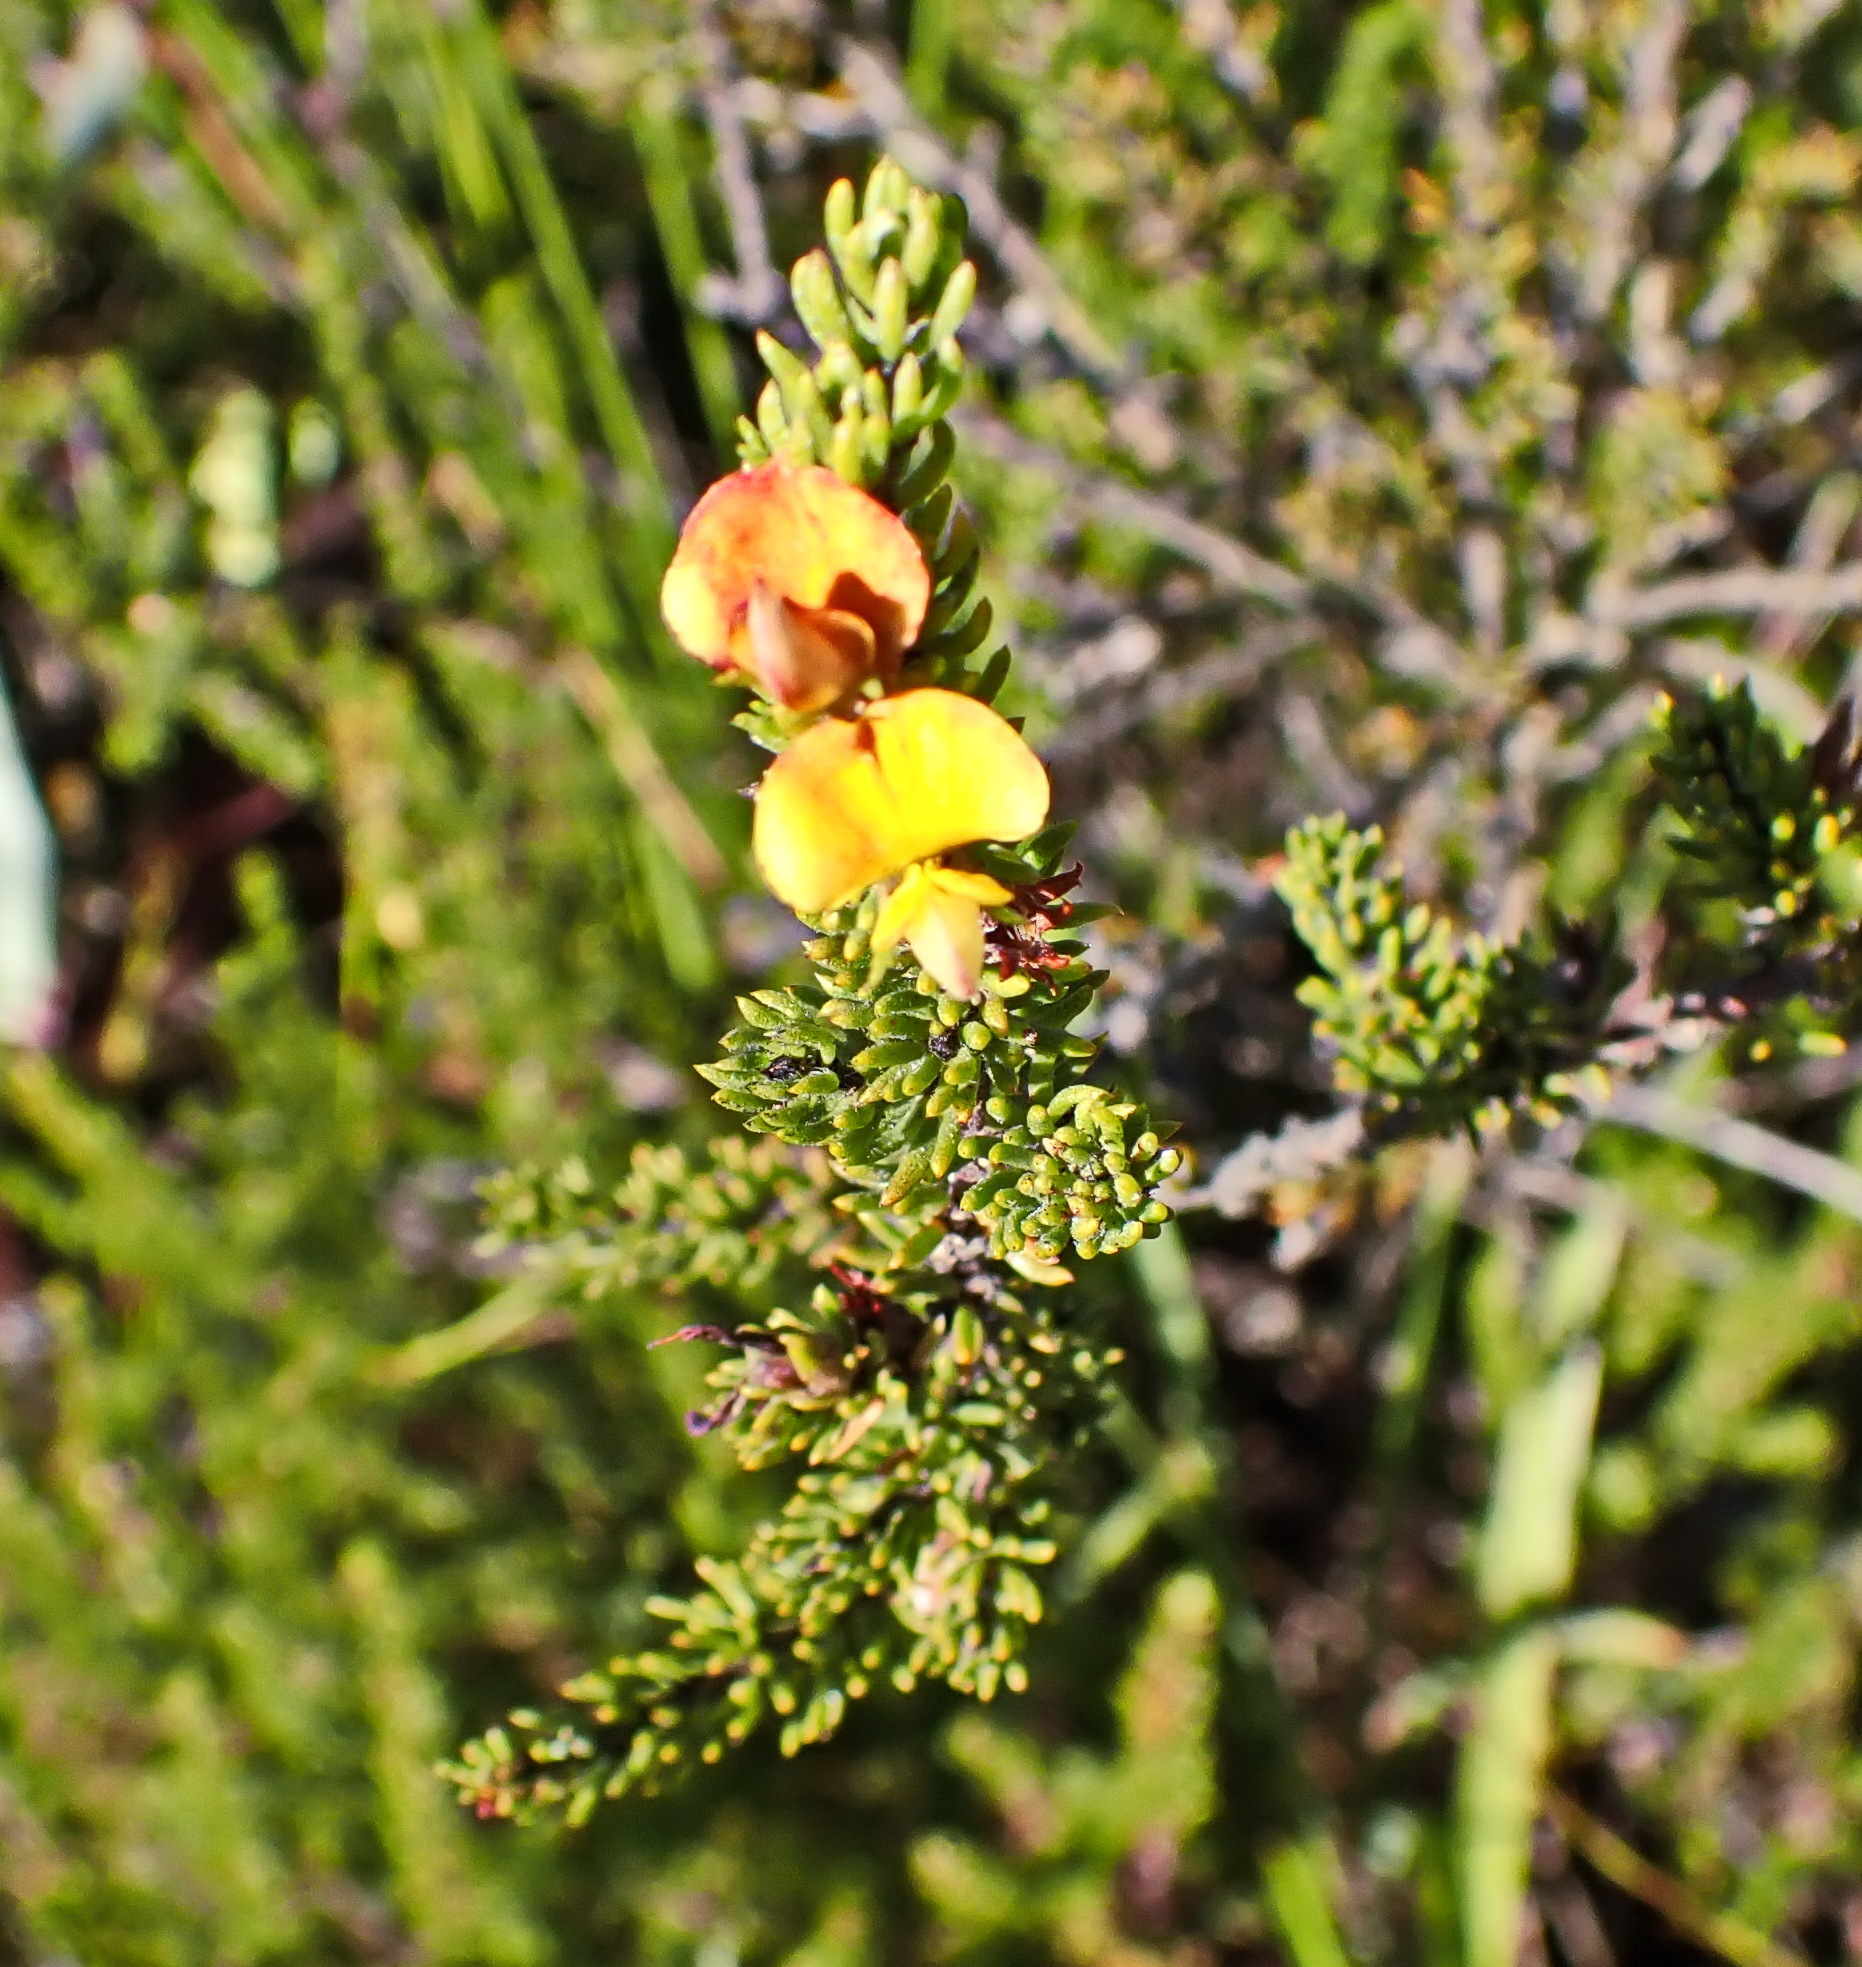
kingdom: Plantae
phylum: Tracheophyta
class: Magnoliopsida
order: Fabales
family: Fabaceae
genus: Aspalathus
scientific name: Aspalathus ciliaris
